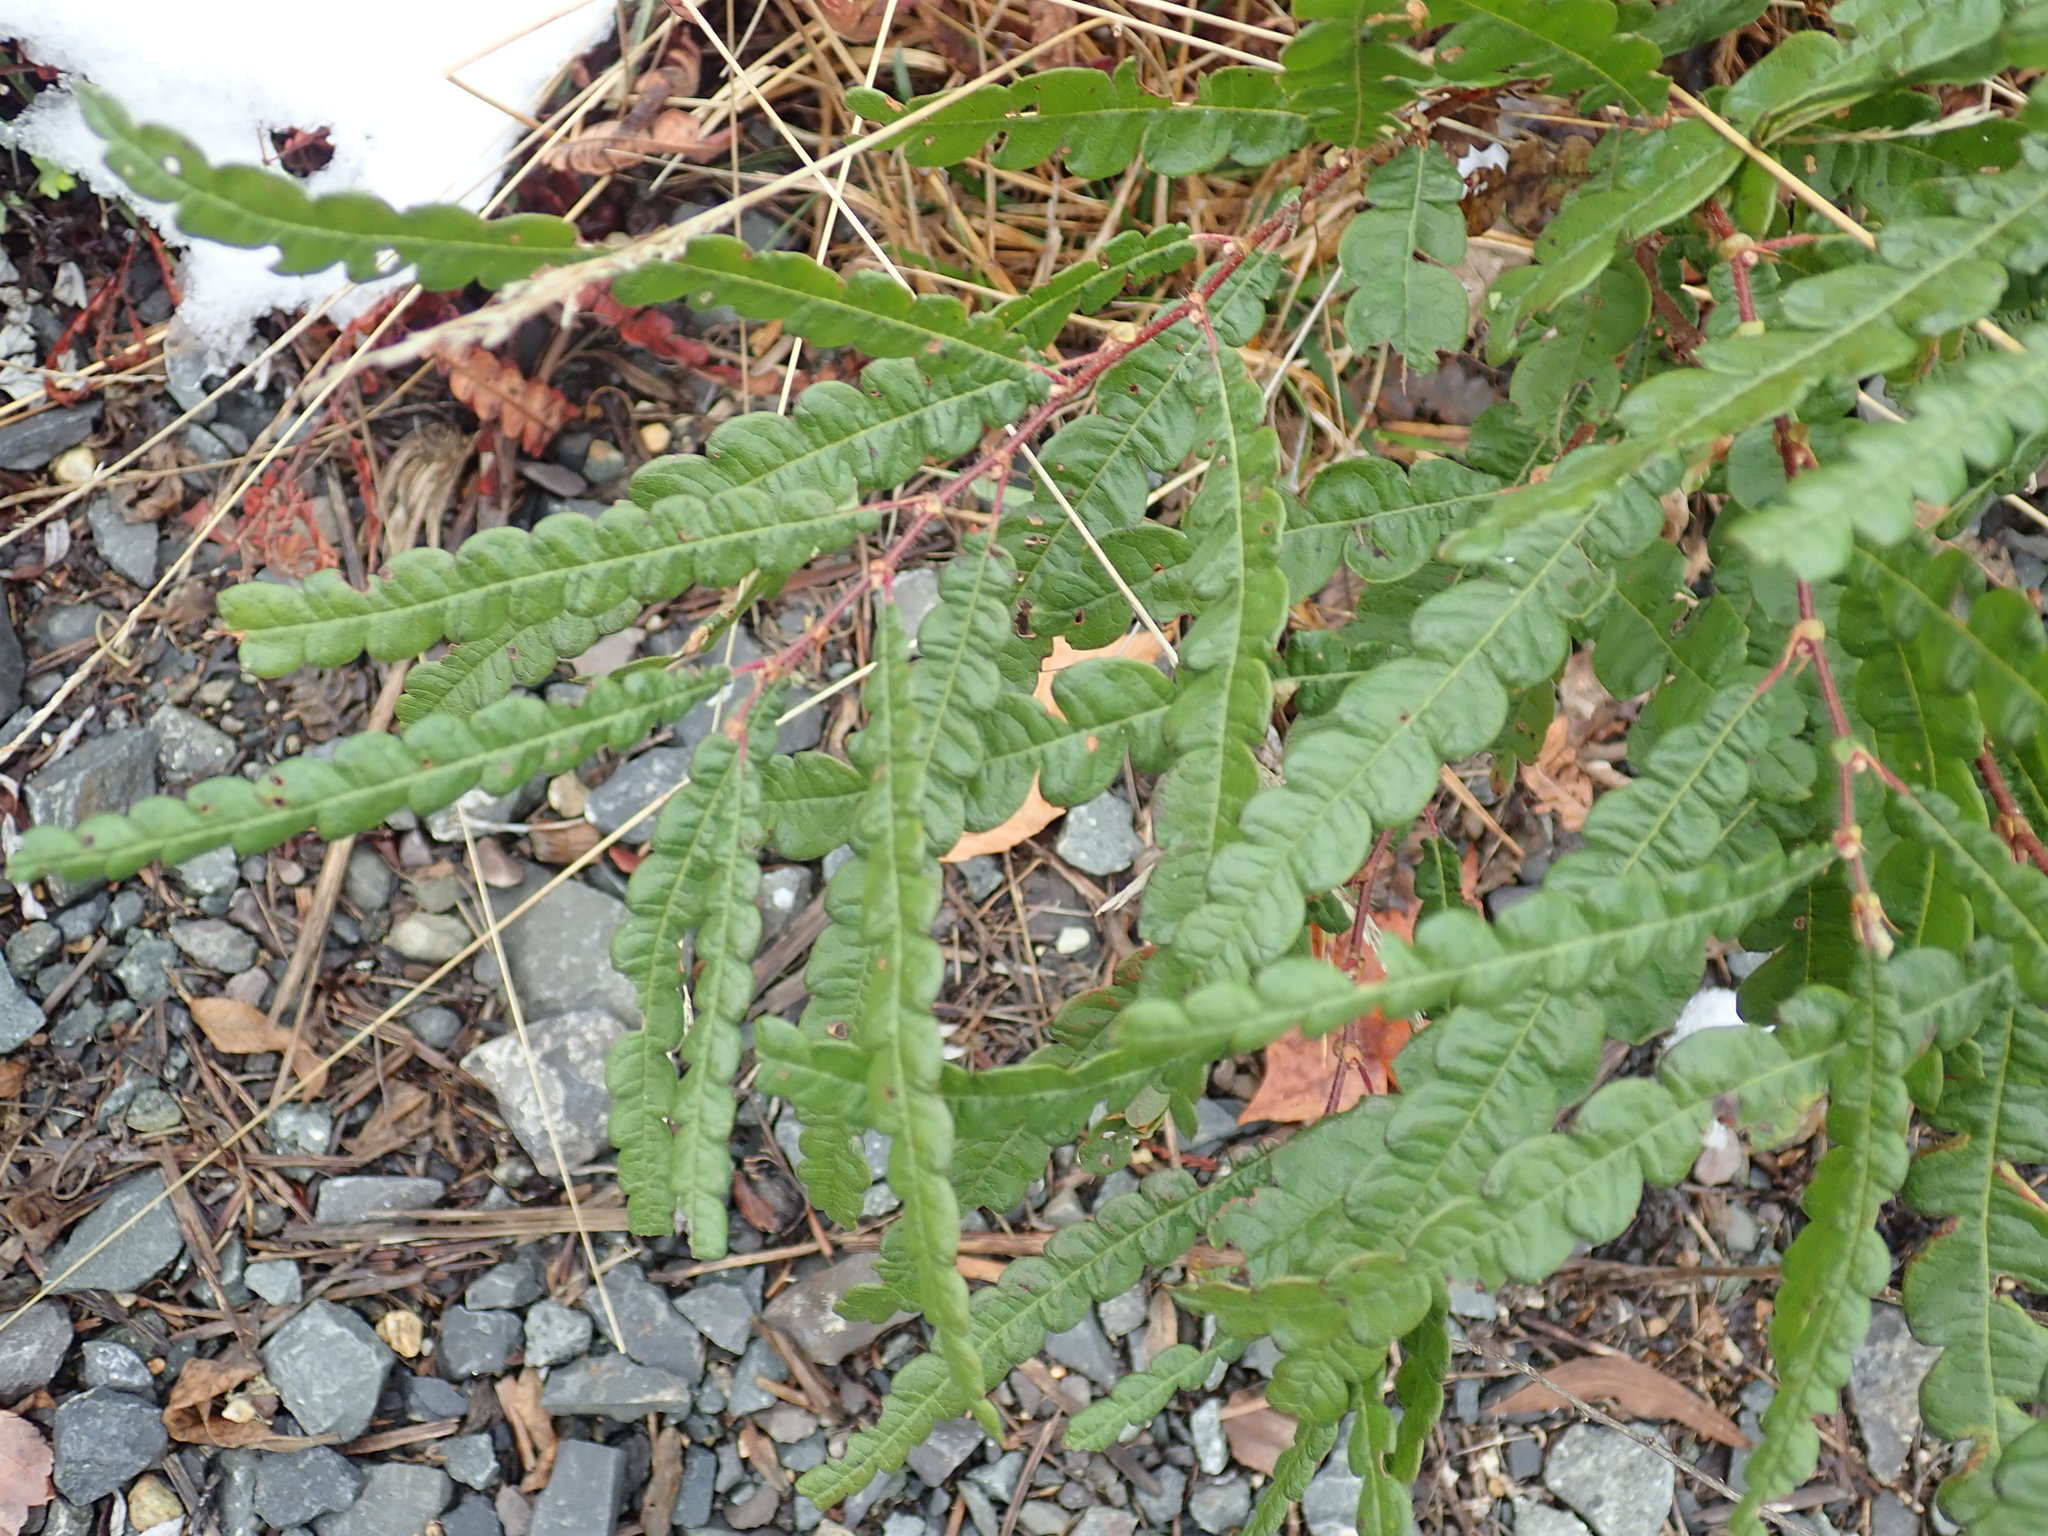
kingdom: Plantae
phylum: Tracheophyta
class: Magnoliopsida
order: Fagales
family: Myricaceae
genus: Comptonia
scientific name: Comptonia peregrina
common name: Sweet-fern
